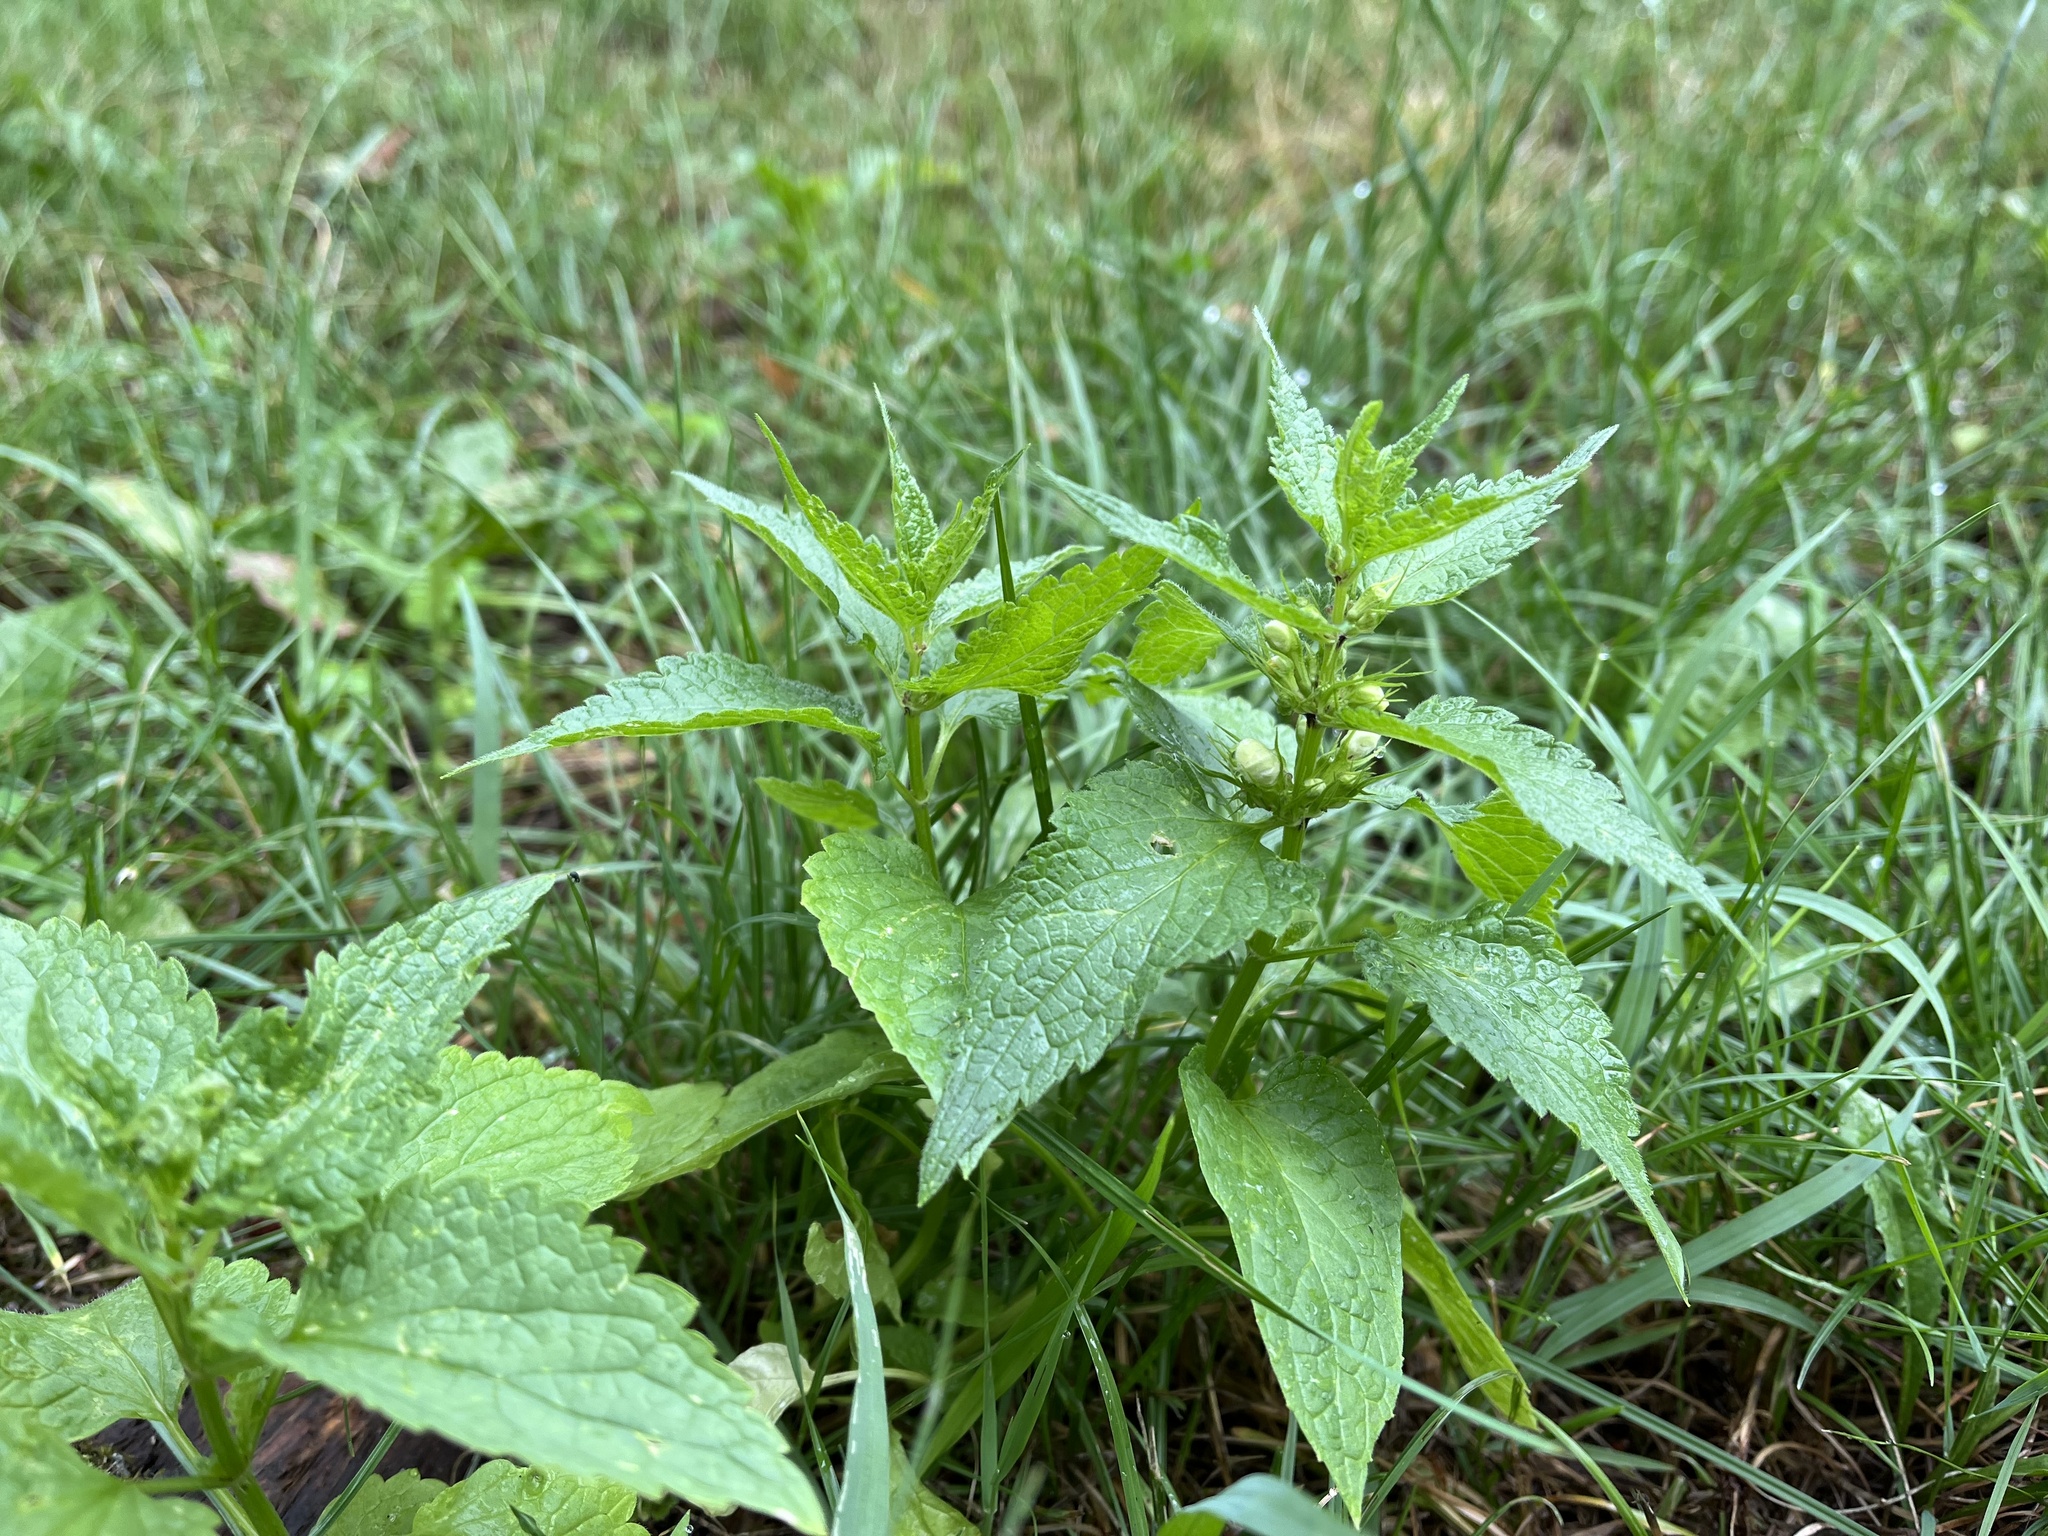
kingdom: Plantae
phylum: Tracheophyta
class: Magnoliopsida
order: Lamiales
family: Lamiaceae
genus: Lamium
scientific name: Lamium album
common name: White dead-nettle
